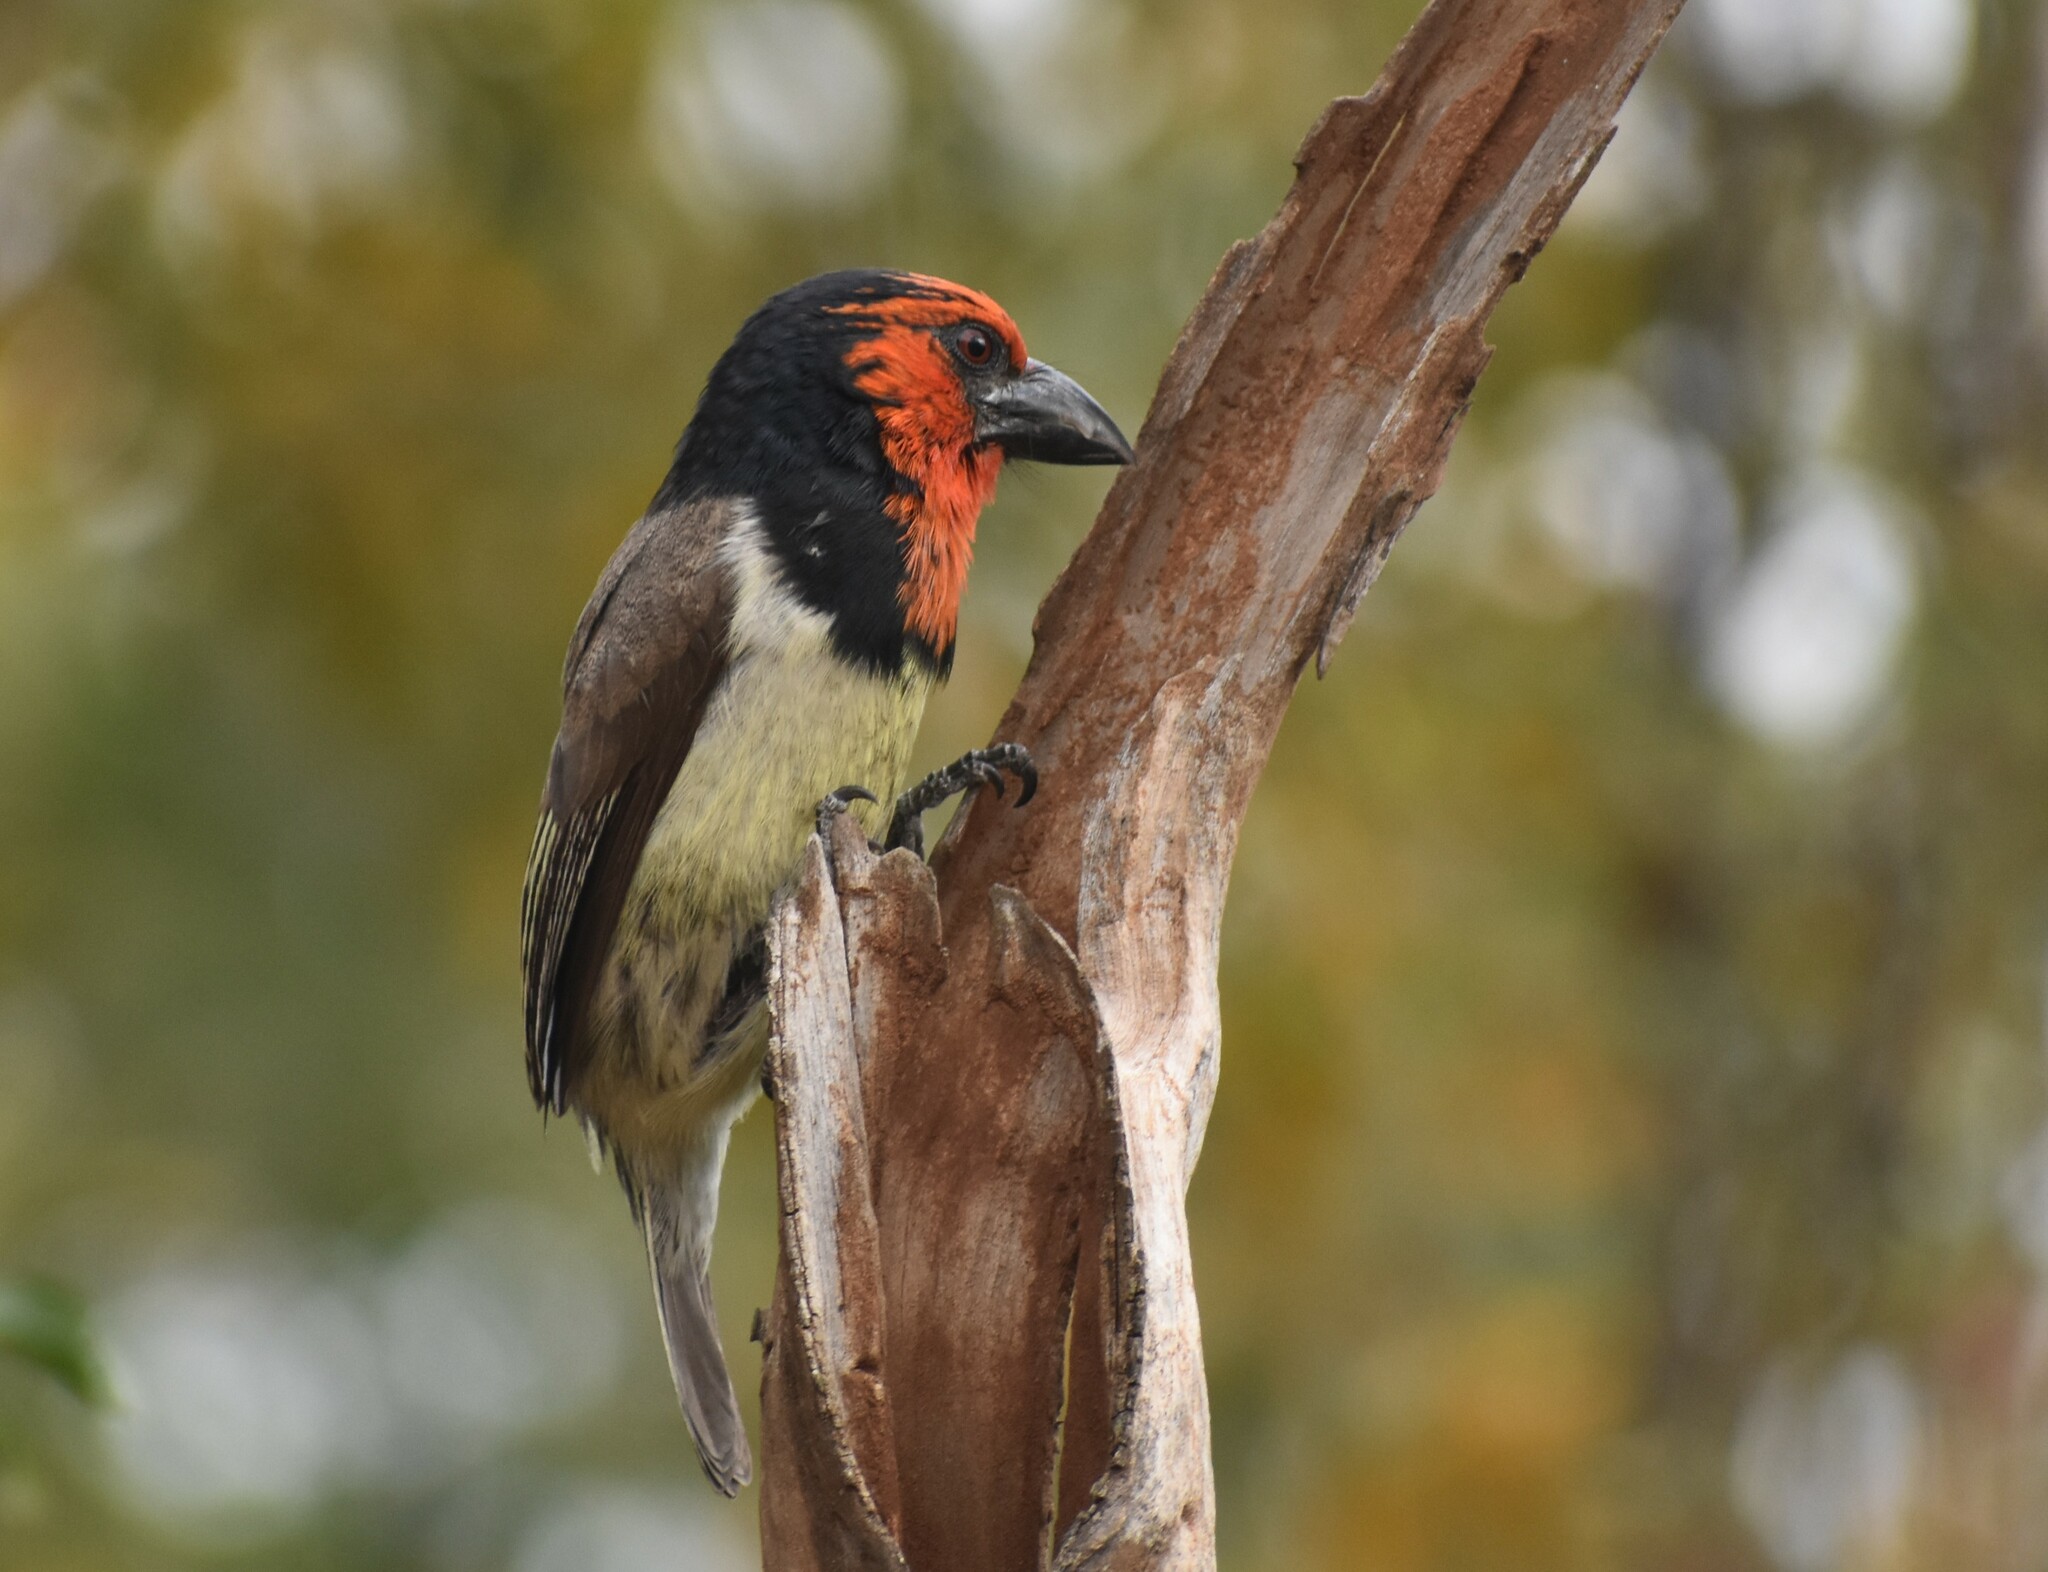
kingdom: Animalia
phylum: Chordata
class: Aves
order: Piciformes
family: Lybiidae
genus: Lybius
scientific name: Lybius torquatus
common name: Black-collared barbet
